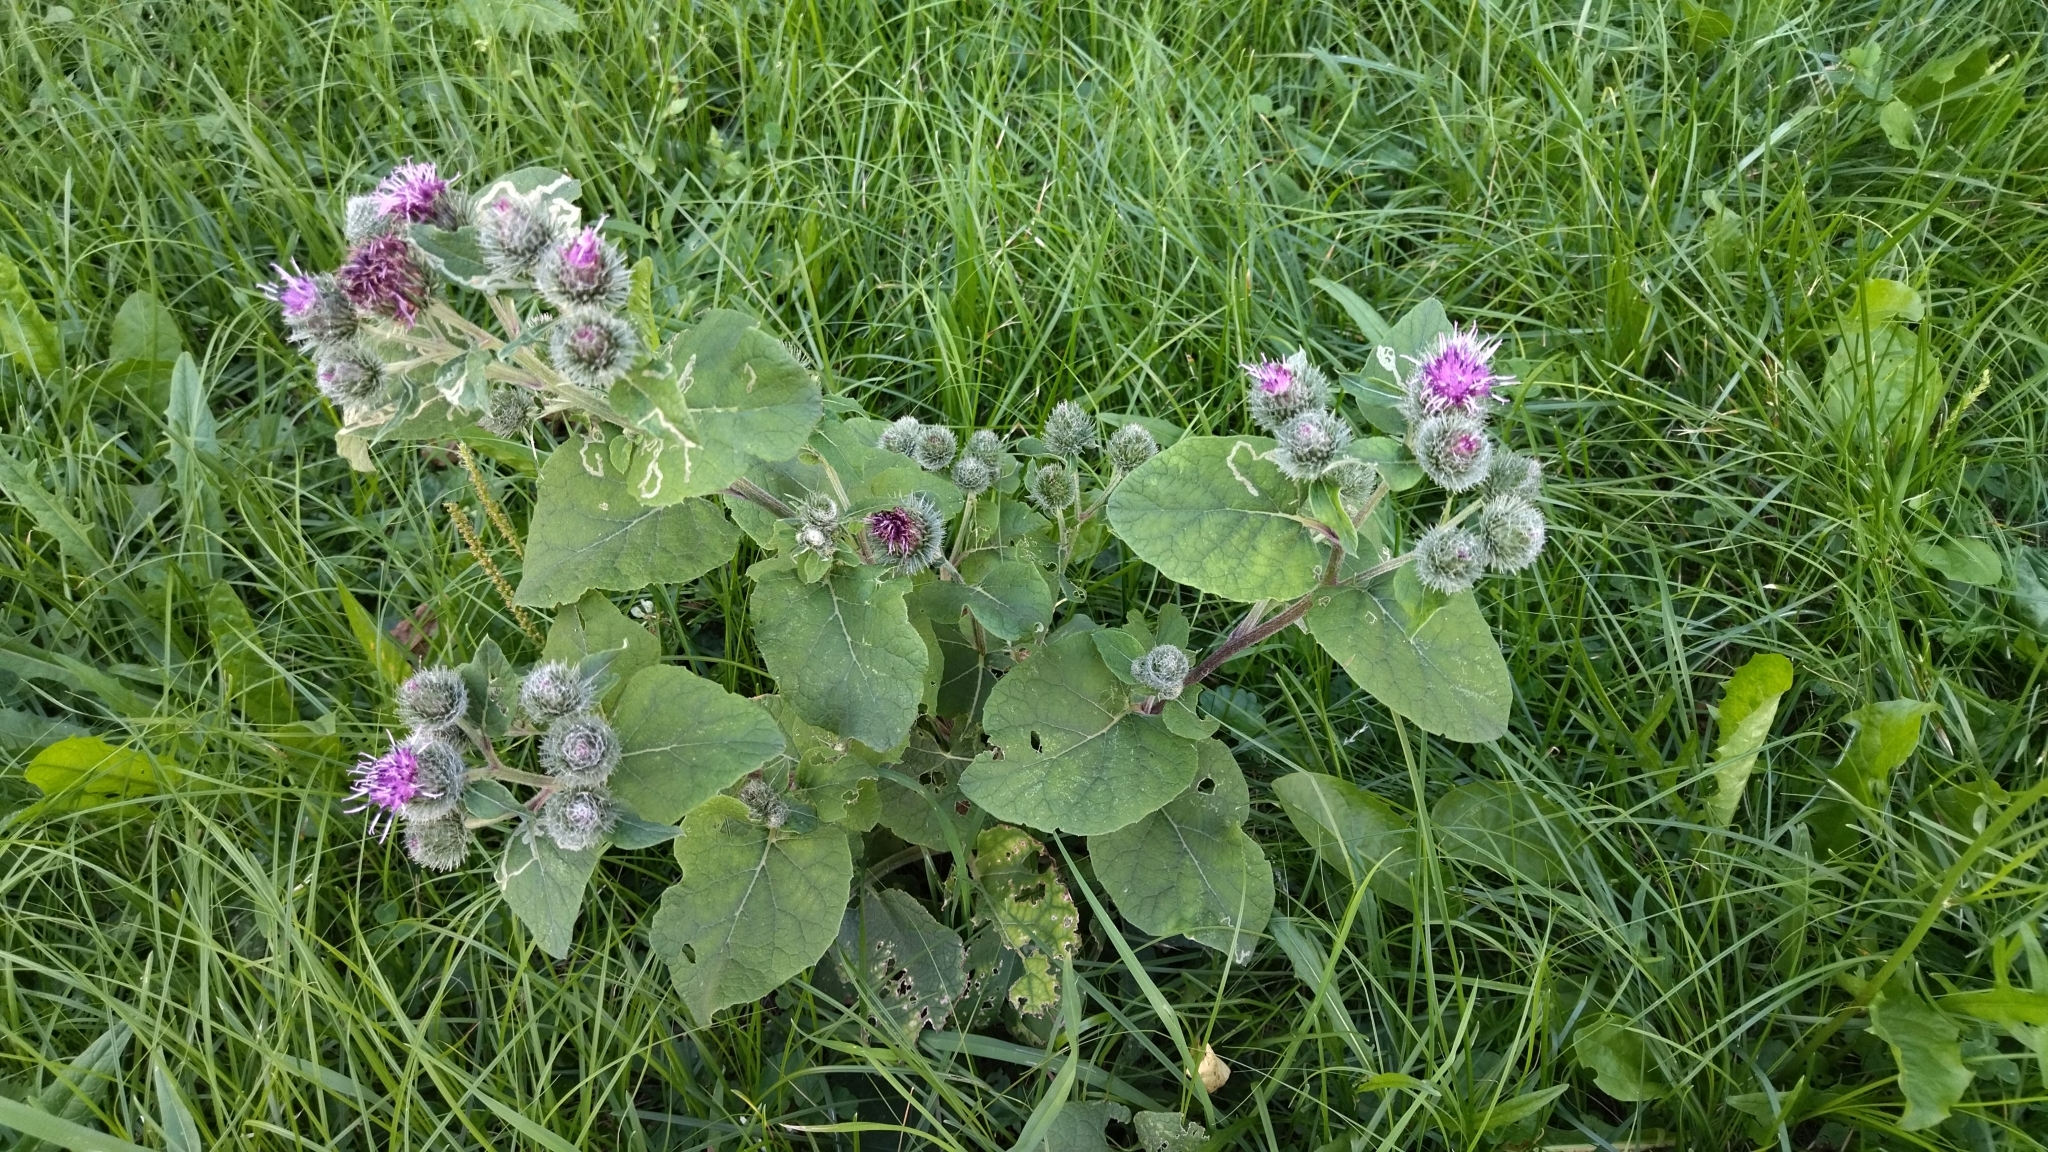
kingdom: Plantae
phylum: Tracheophyta
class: Magnoliopsida
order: Asterales
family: Asteraceae
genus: Arctium
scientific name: Arctium tomentosum
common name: Woolly burdock
